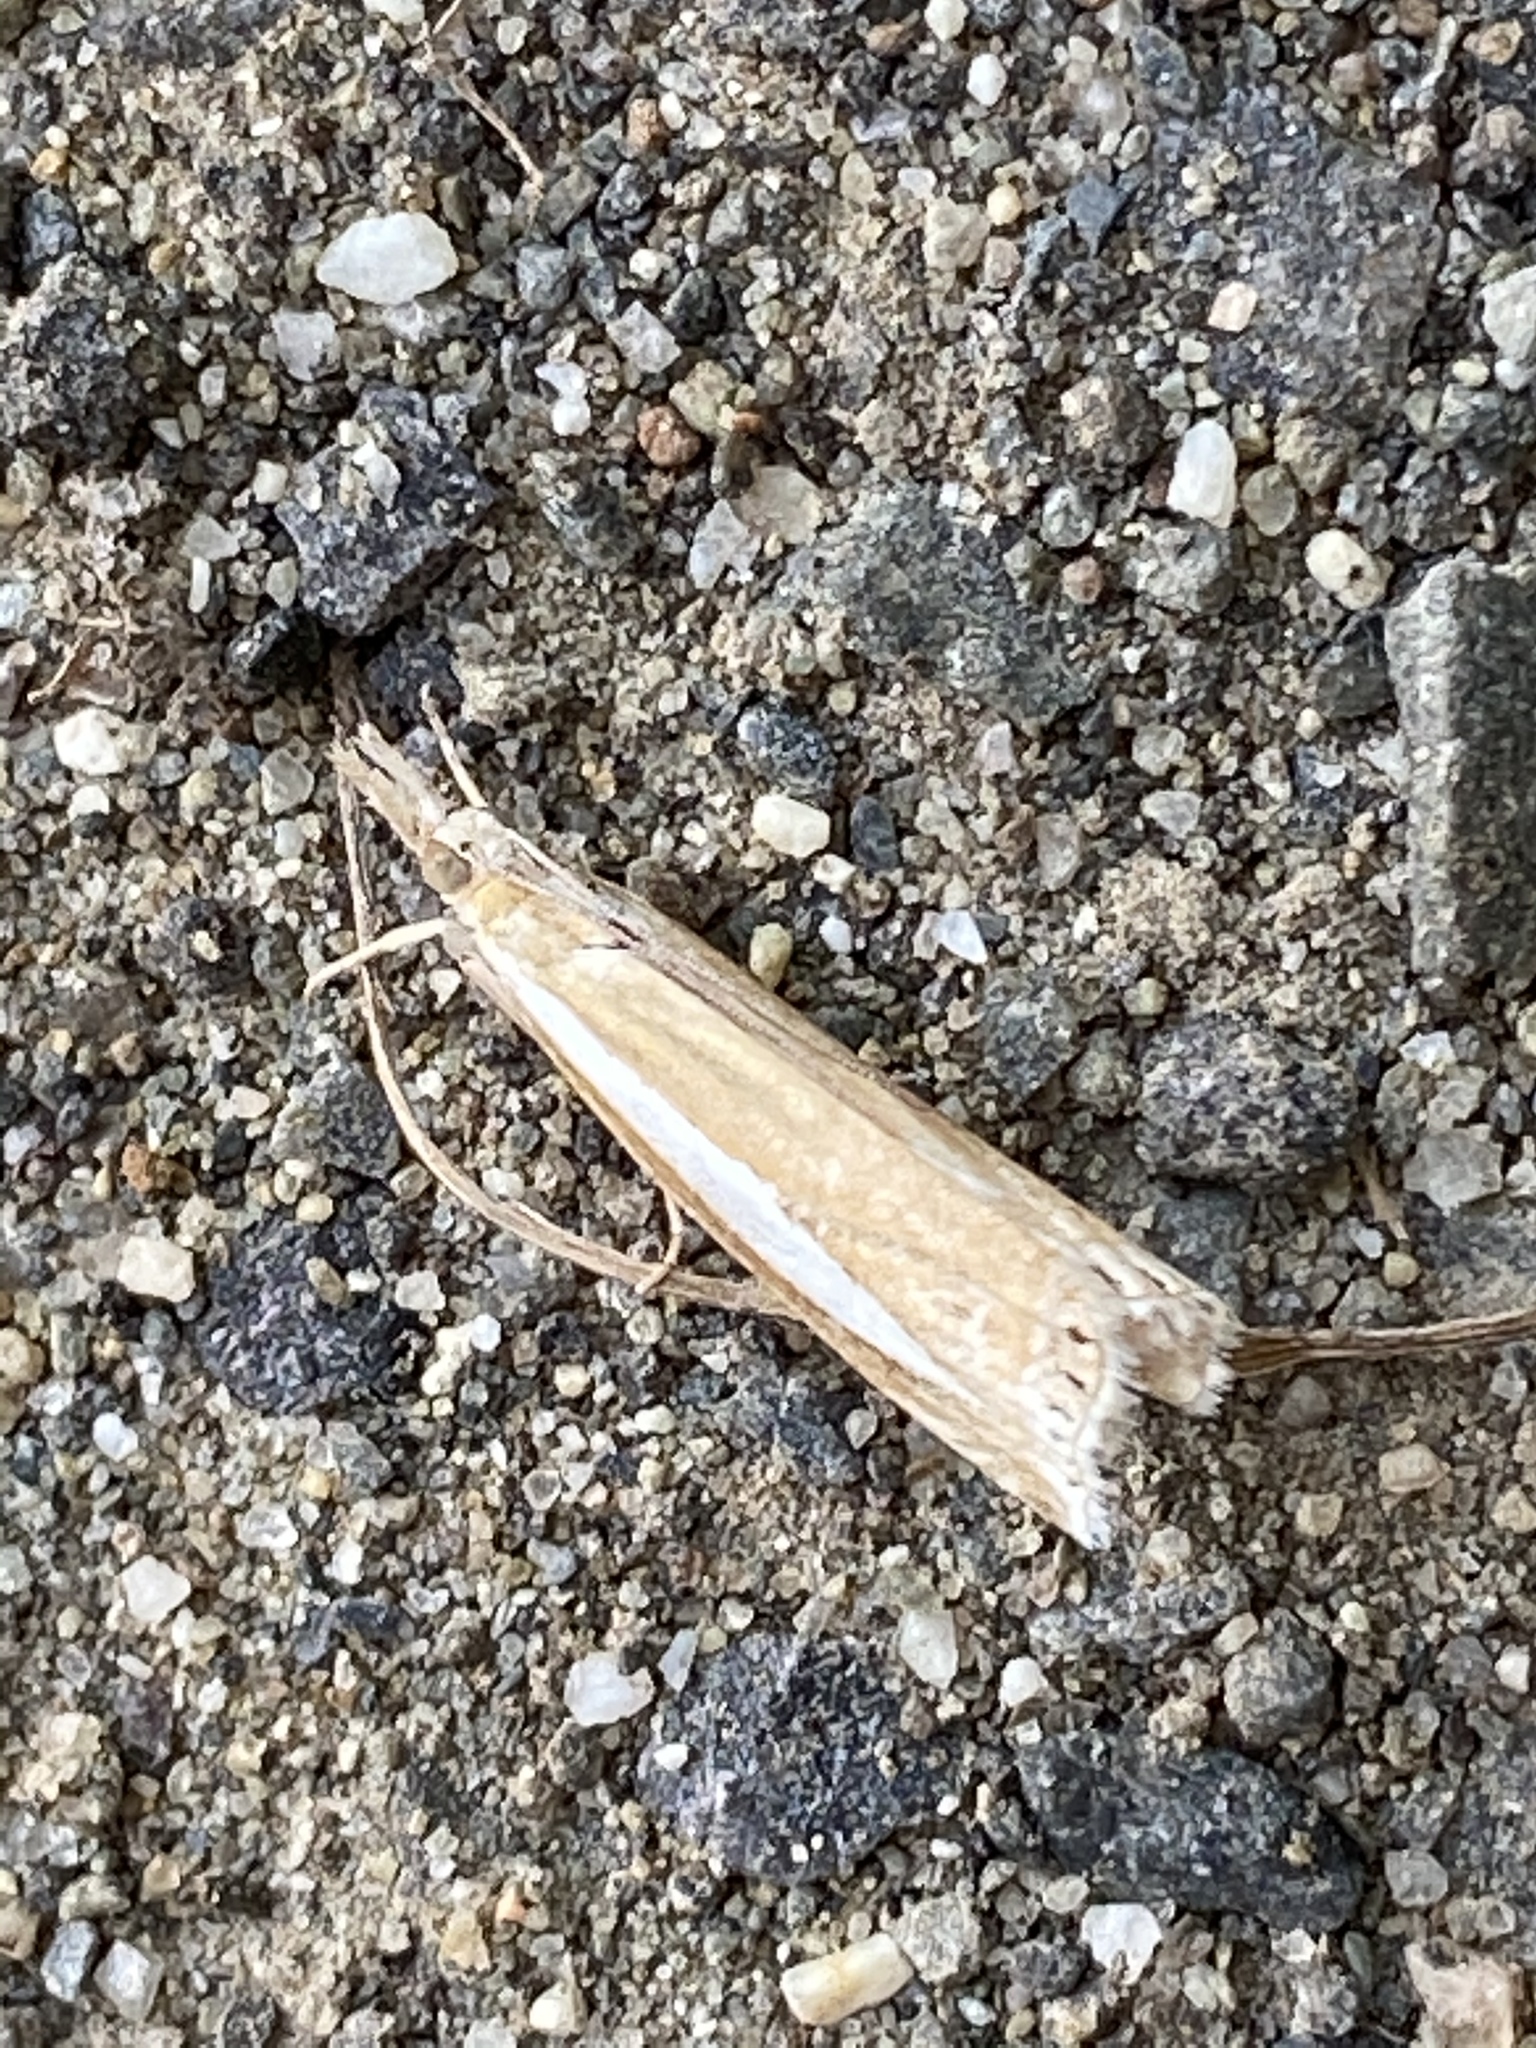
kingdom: Animalia
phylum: Arthropoda
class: Insecta
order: Lepidoptera
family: Crambidae
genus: Crambus
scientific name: Crambus praefectellus
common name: Common grass-veneer
